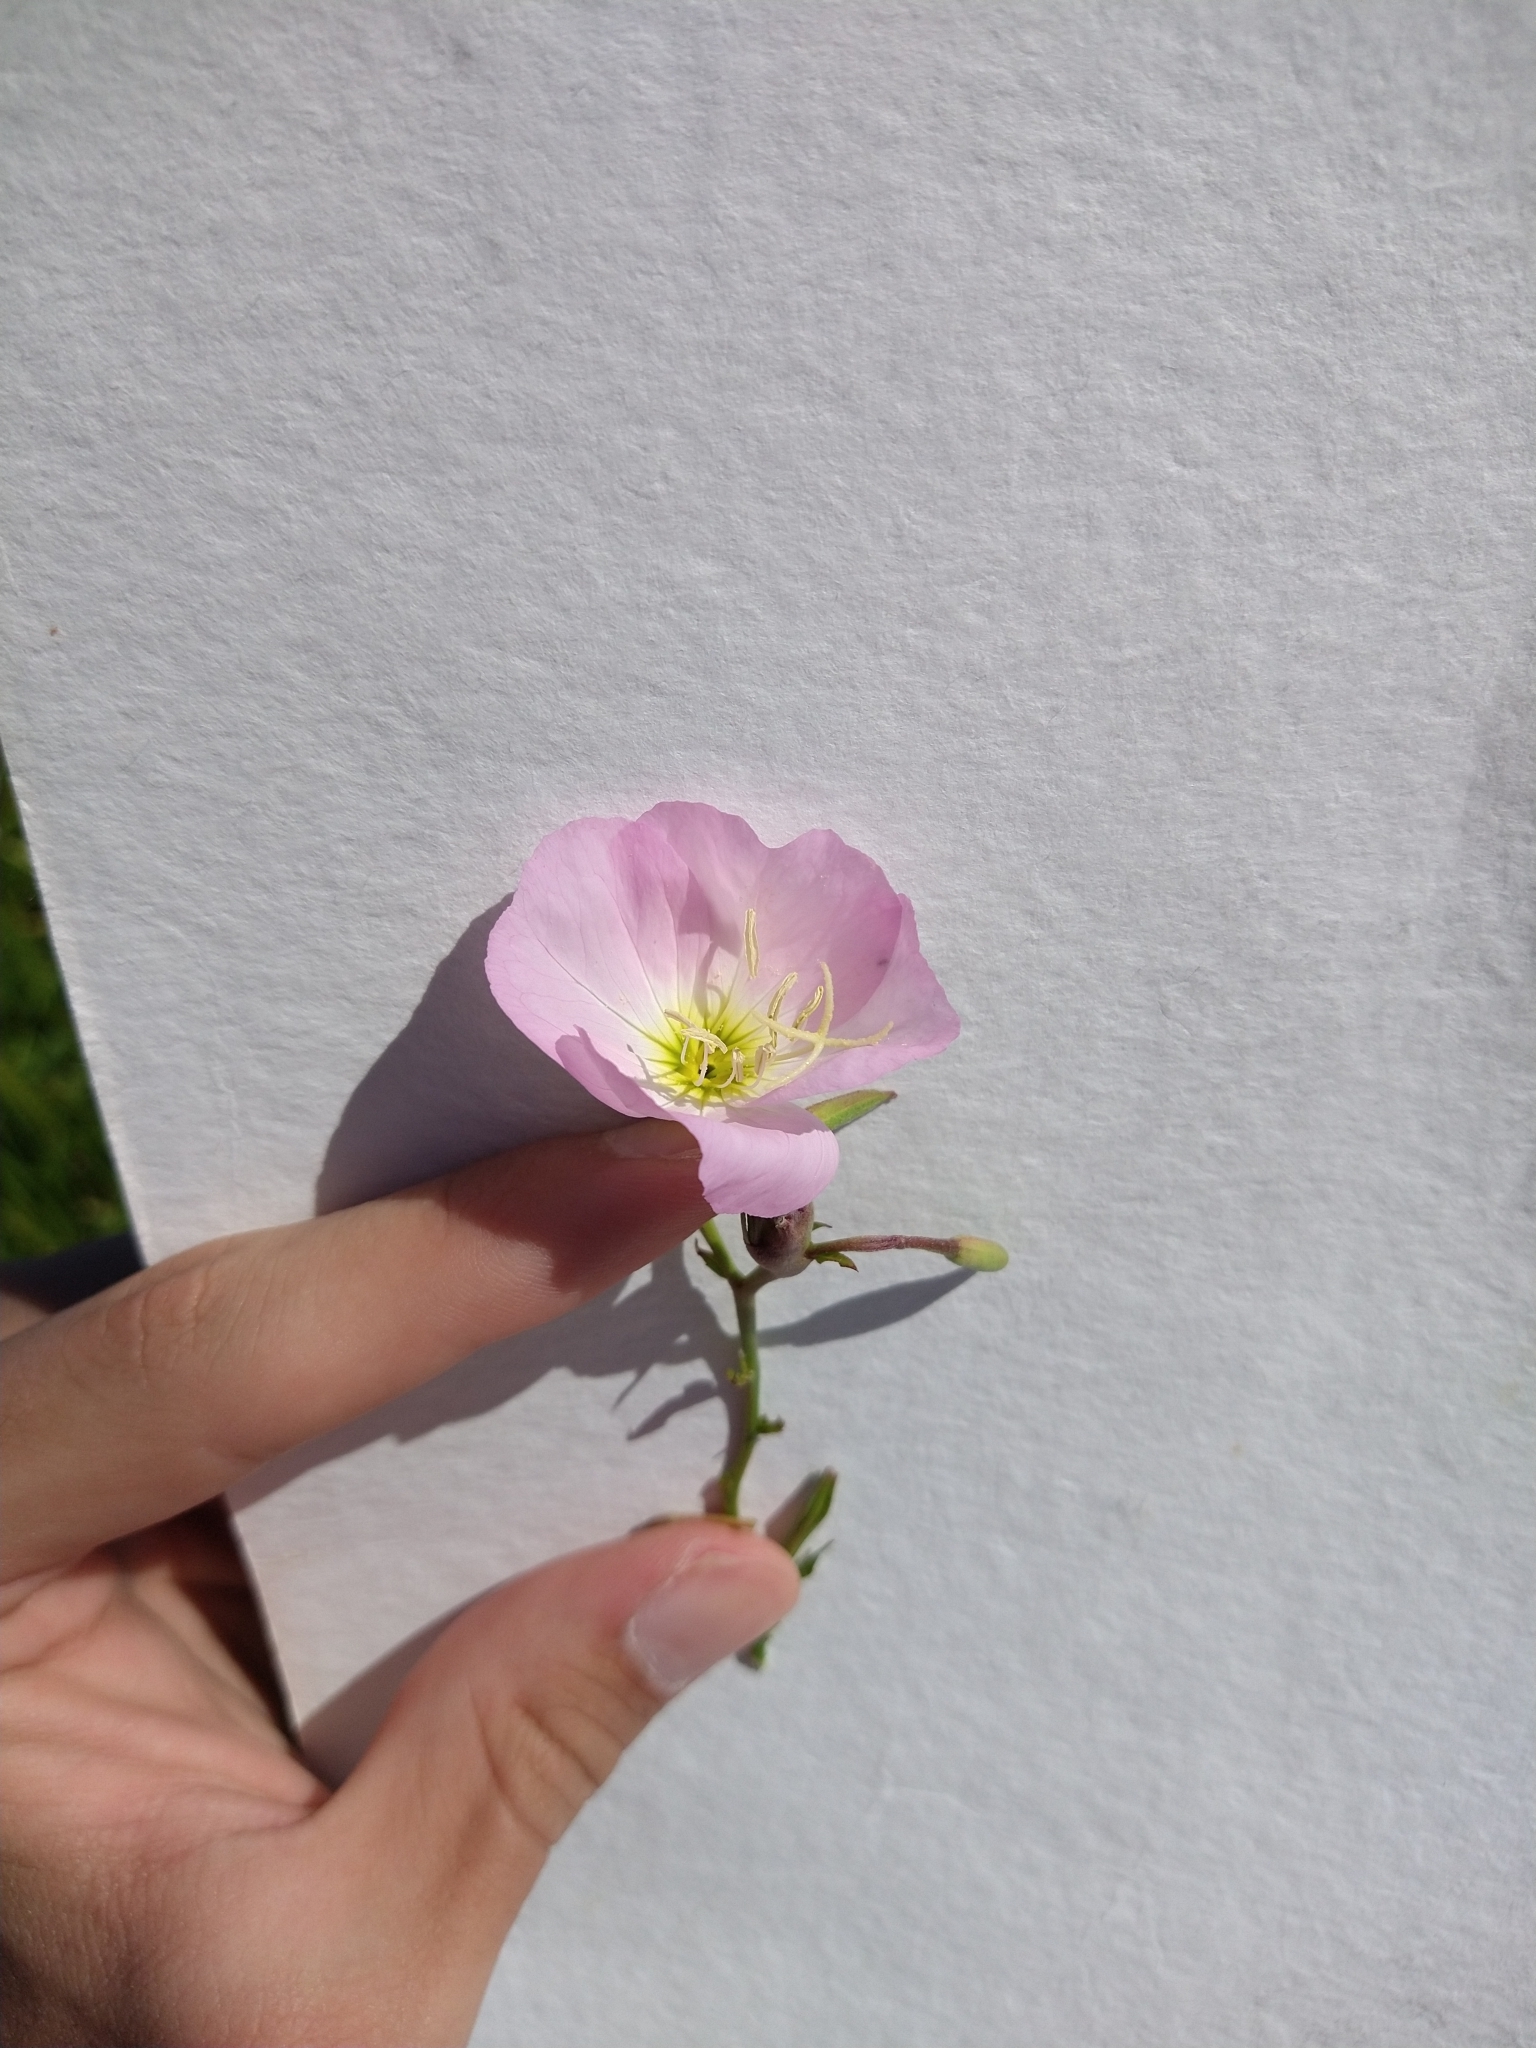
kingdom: Plantae
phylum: Tracheophyta
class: Magnoliopsida
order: Myrtales
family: Onagraceae
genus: Oenothera
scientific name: Oenothera speciosa
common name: White evening-primrose
